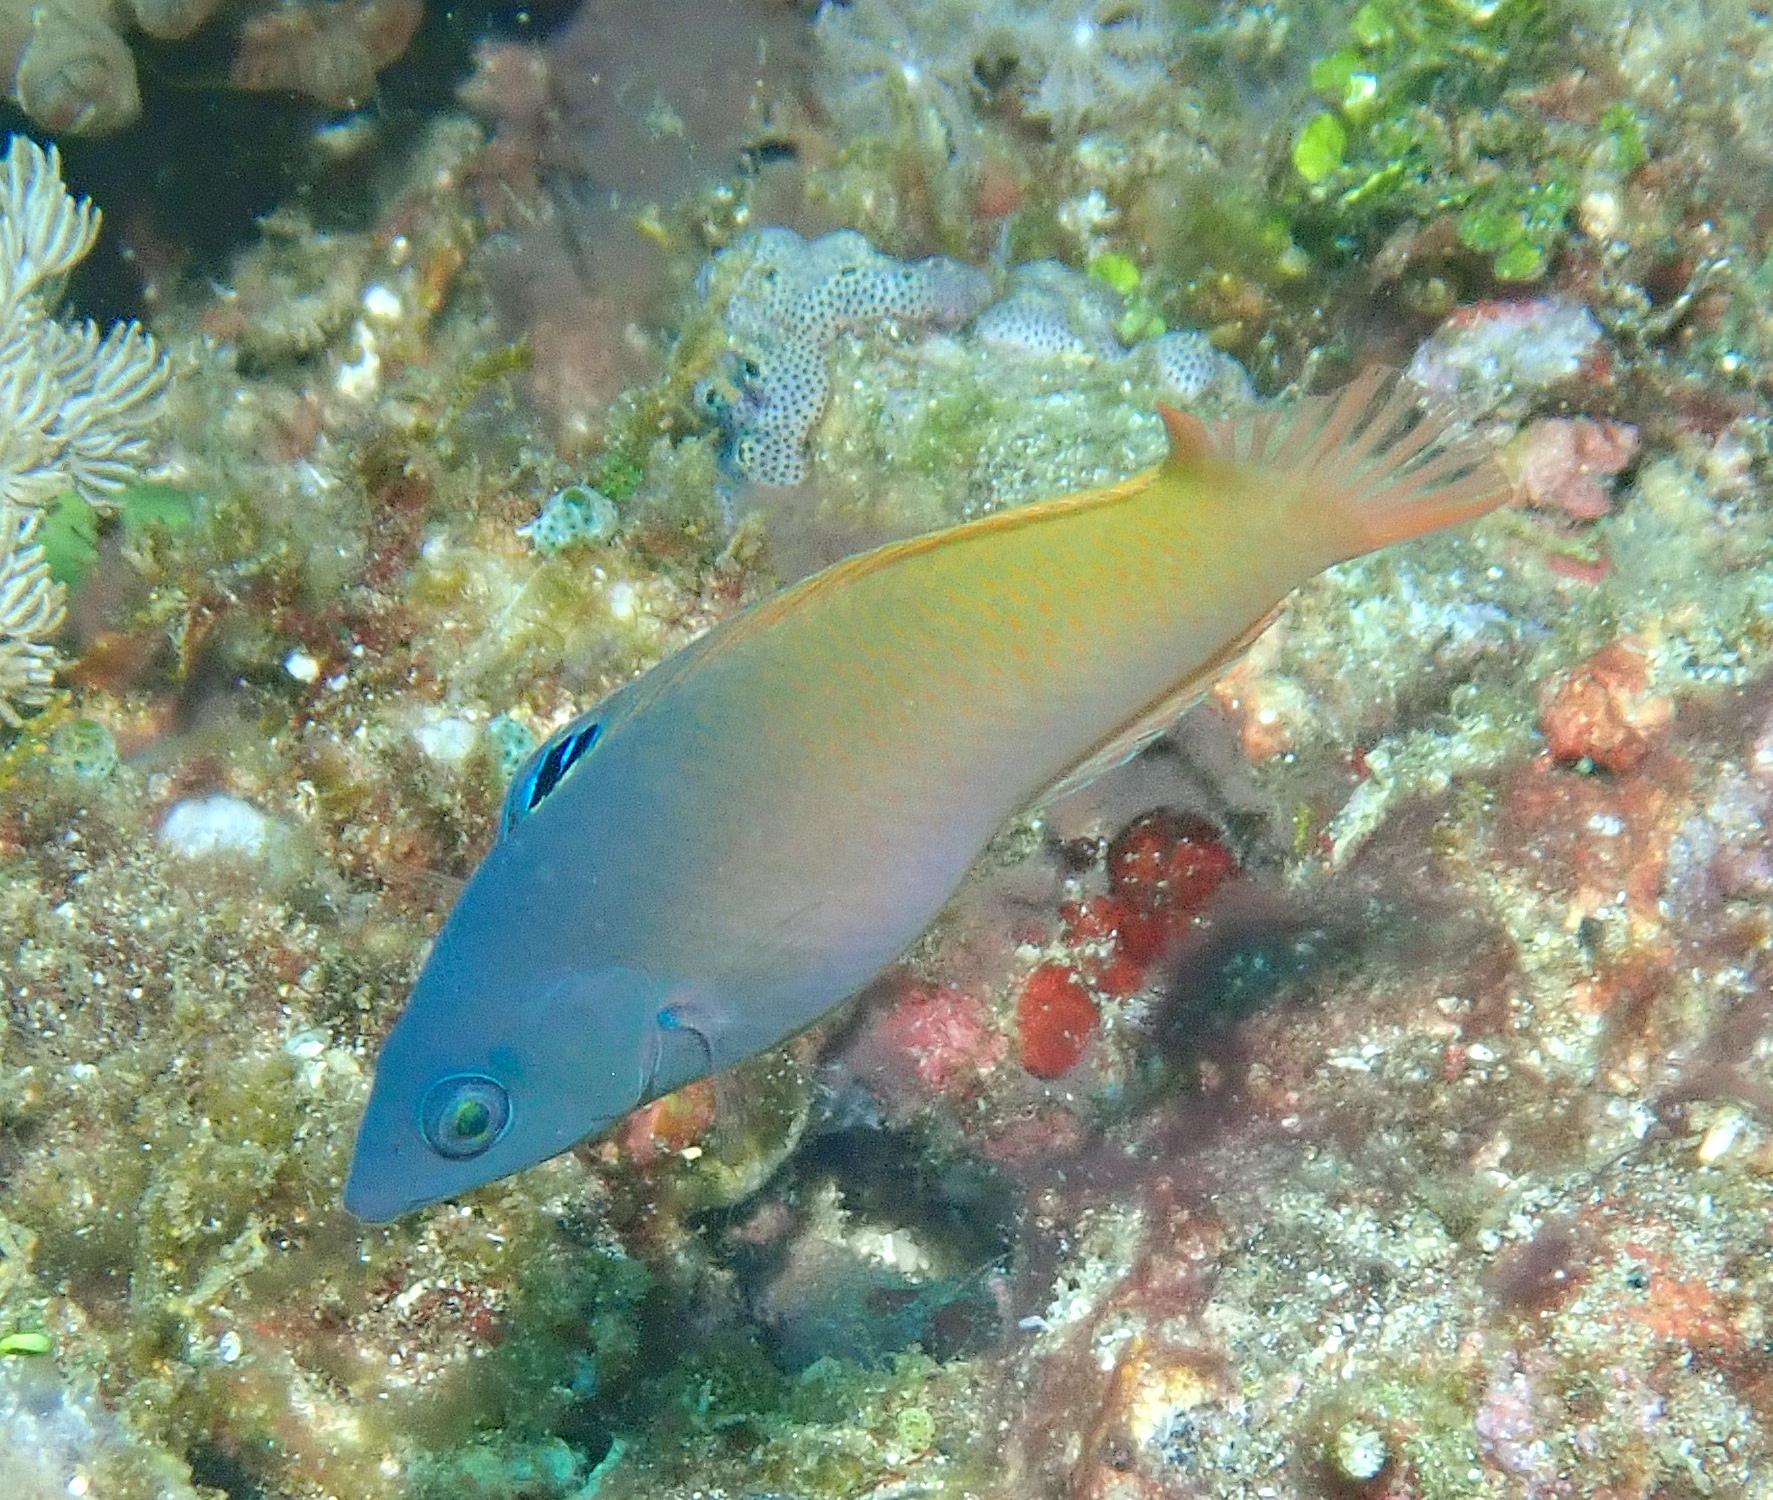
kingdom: Animalia
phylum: Chordata
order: Perciformes
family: Labridae
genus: Halichoeres
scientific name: Halichoeres prosopeion
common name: Half-grey wrasse
